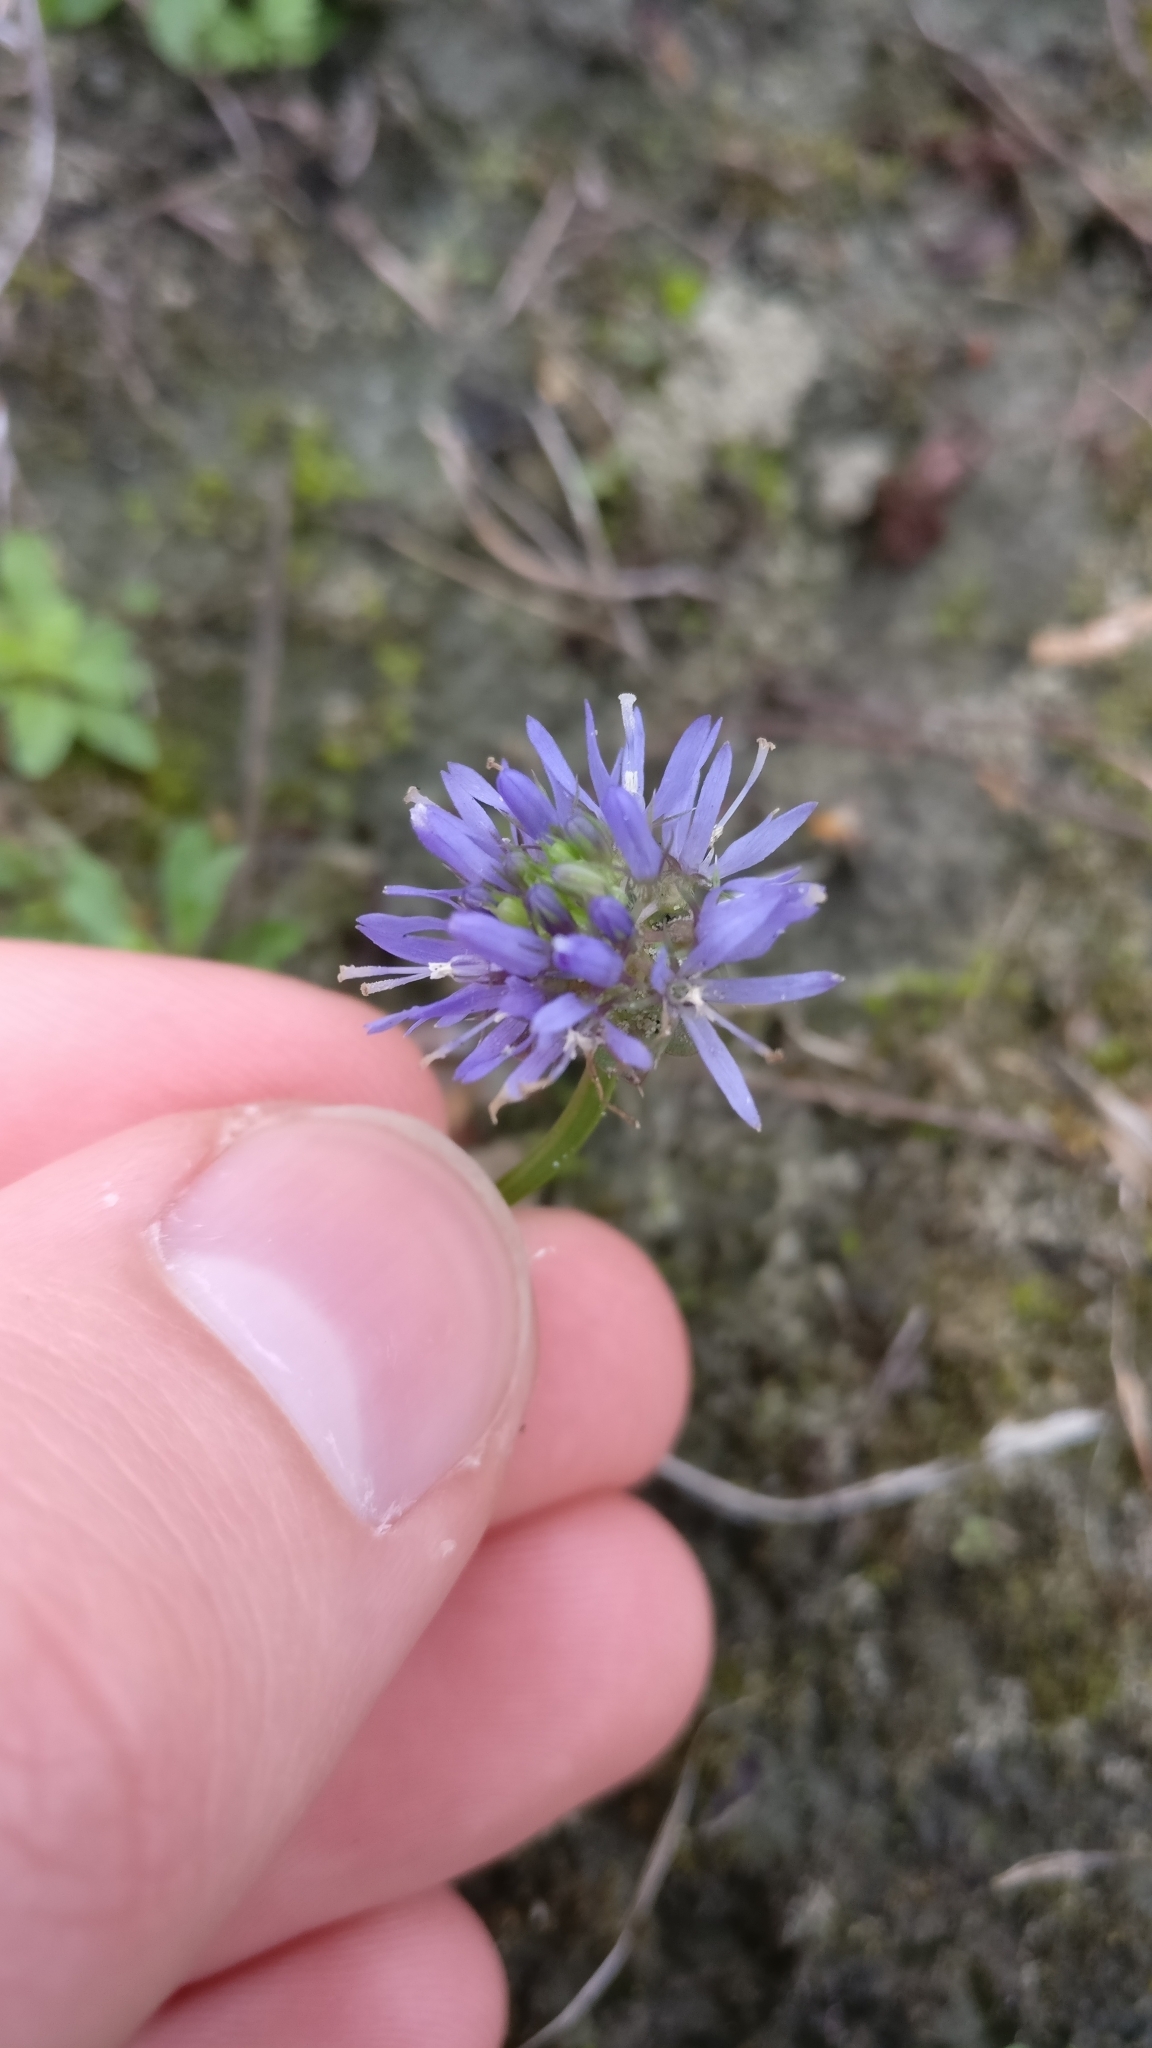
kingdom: Plantae
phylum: Tracheophyta
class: Magnoliopsida
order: Asterales
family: Campanulaceae
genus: Jasione
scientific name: Jasione montana
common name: Sheep's-bit
